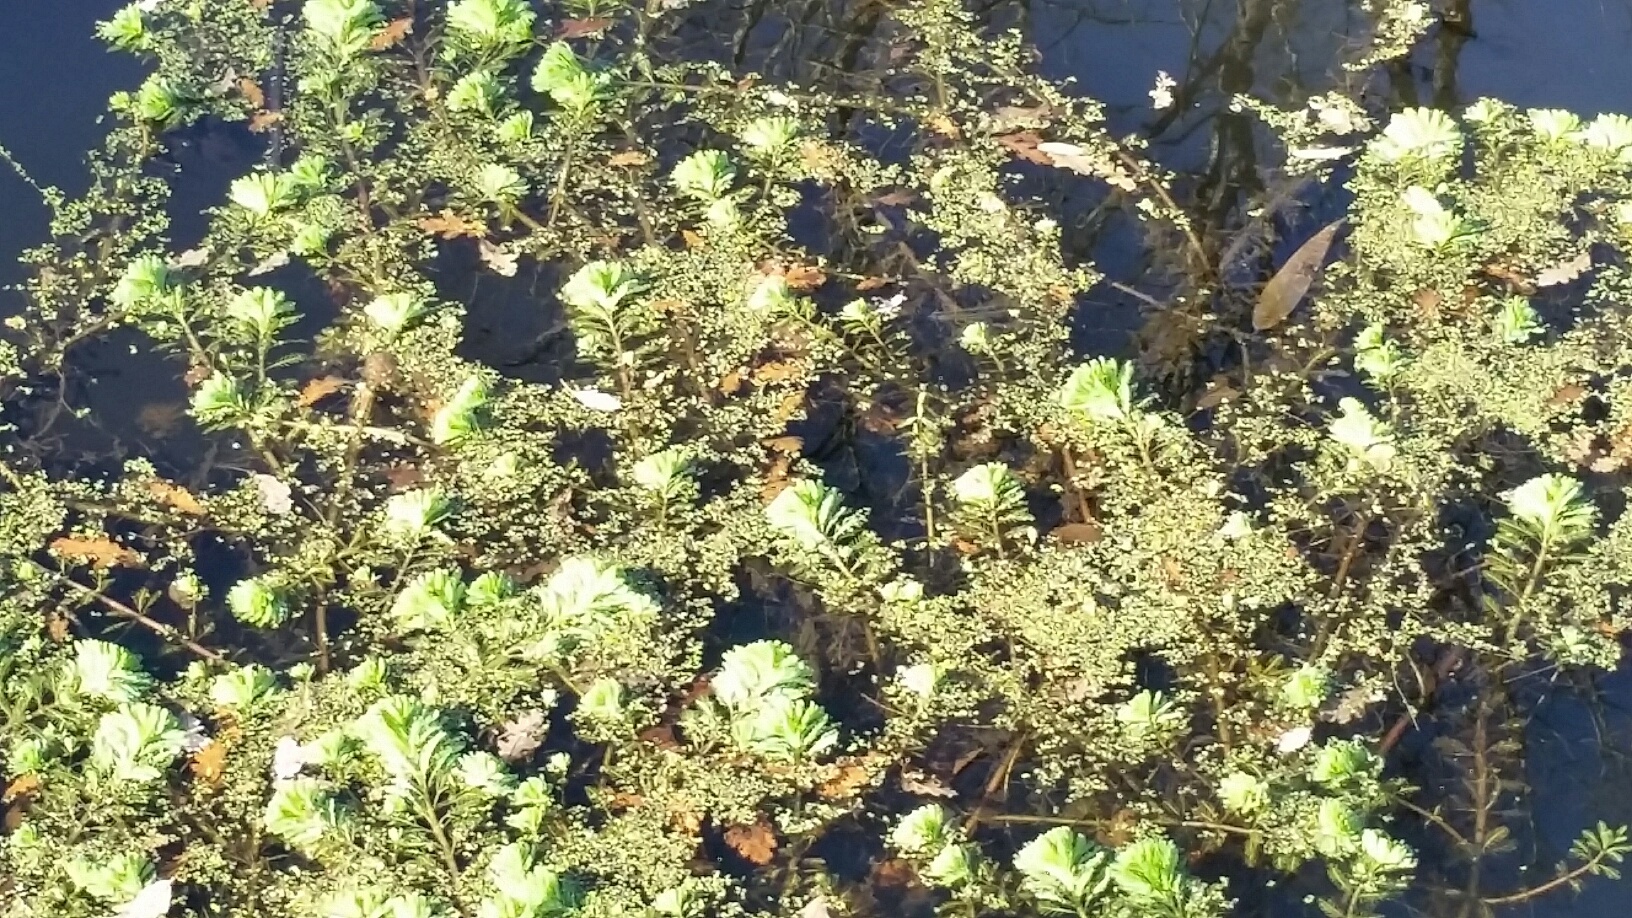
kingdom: Plantae
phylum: Tracheophyta
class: Magnoliopsida
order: Saxifragales
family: Haloragaceae
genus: Myriophyllum
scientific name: Myriophyllum aquaticum
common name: Parrot's feather
